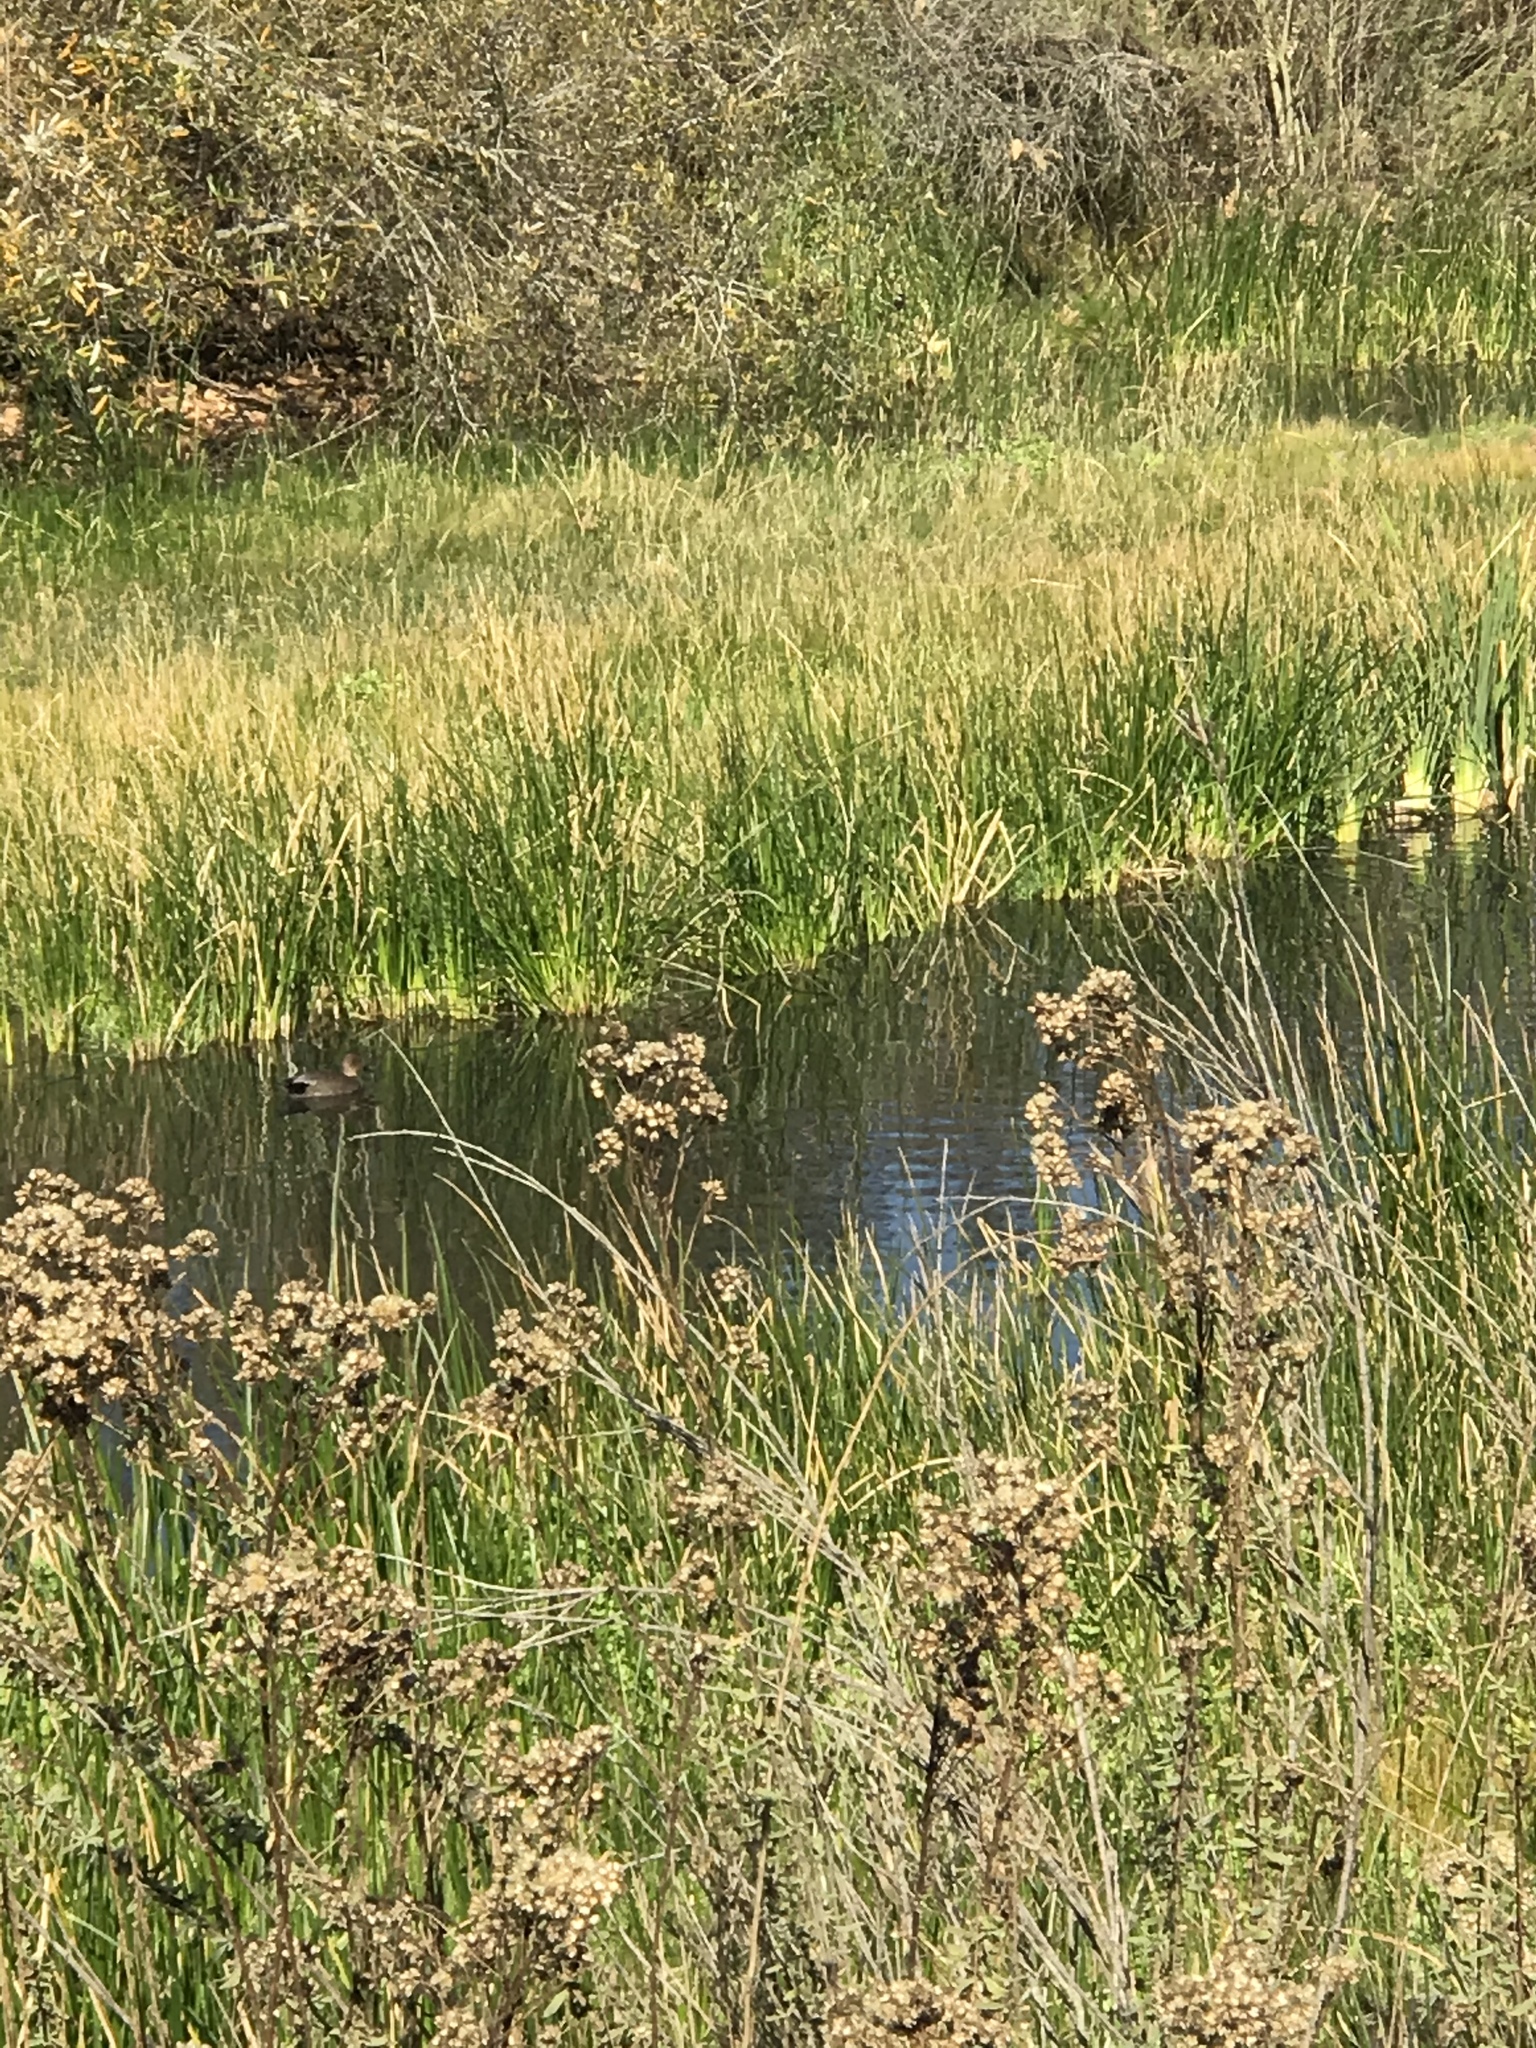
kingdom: Animalia
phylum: Chordata
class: Aves
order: Anseriformes
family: Anatidae
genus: Mareca
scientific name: Mareca strepera
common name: Gadwall
